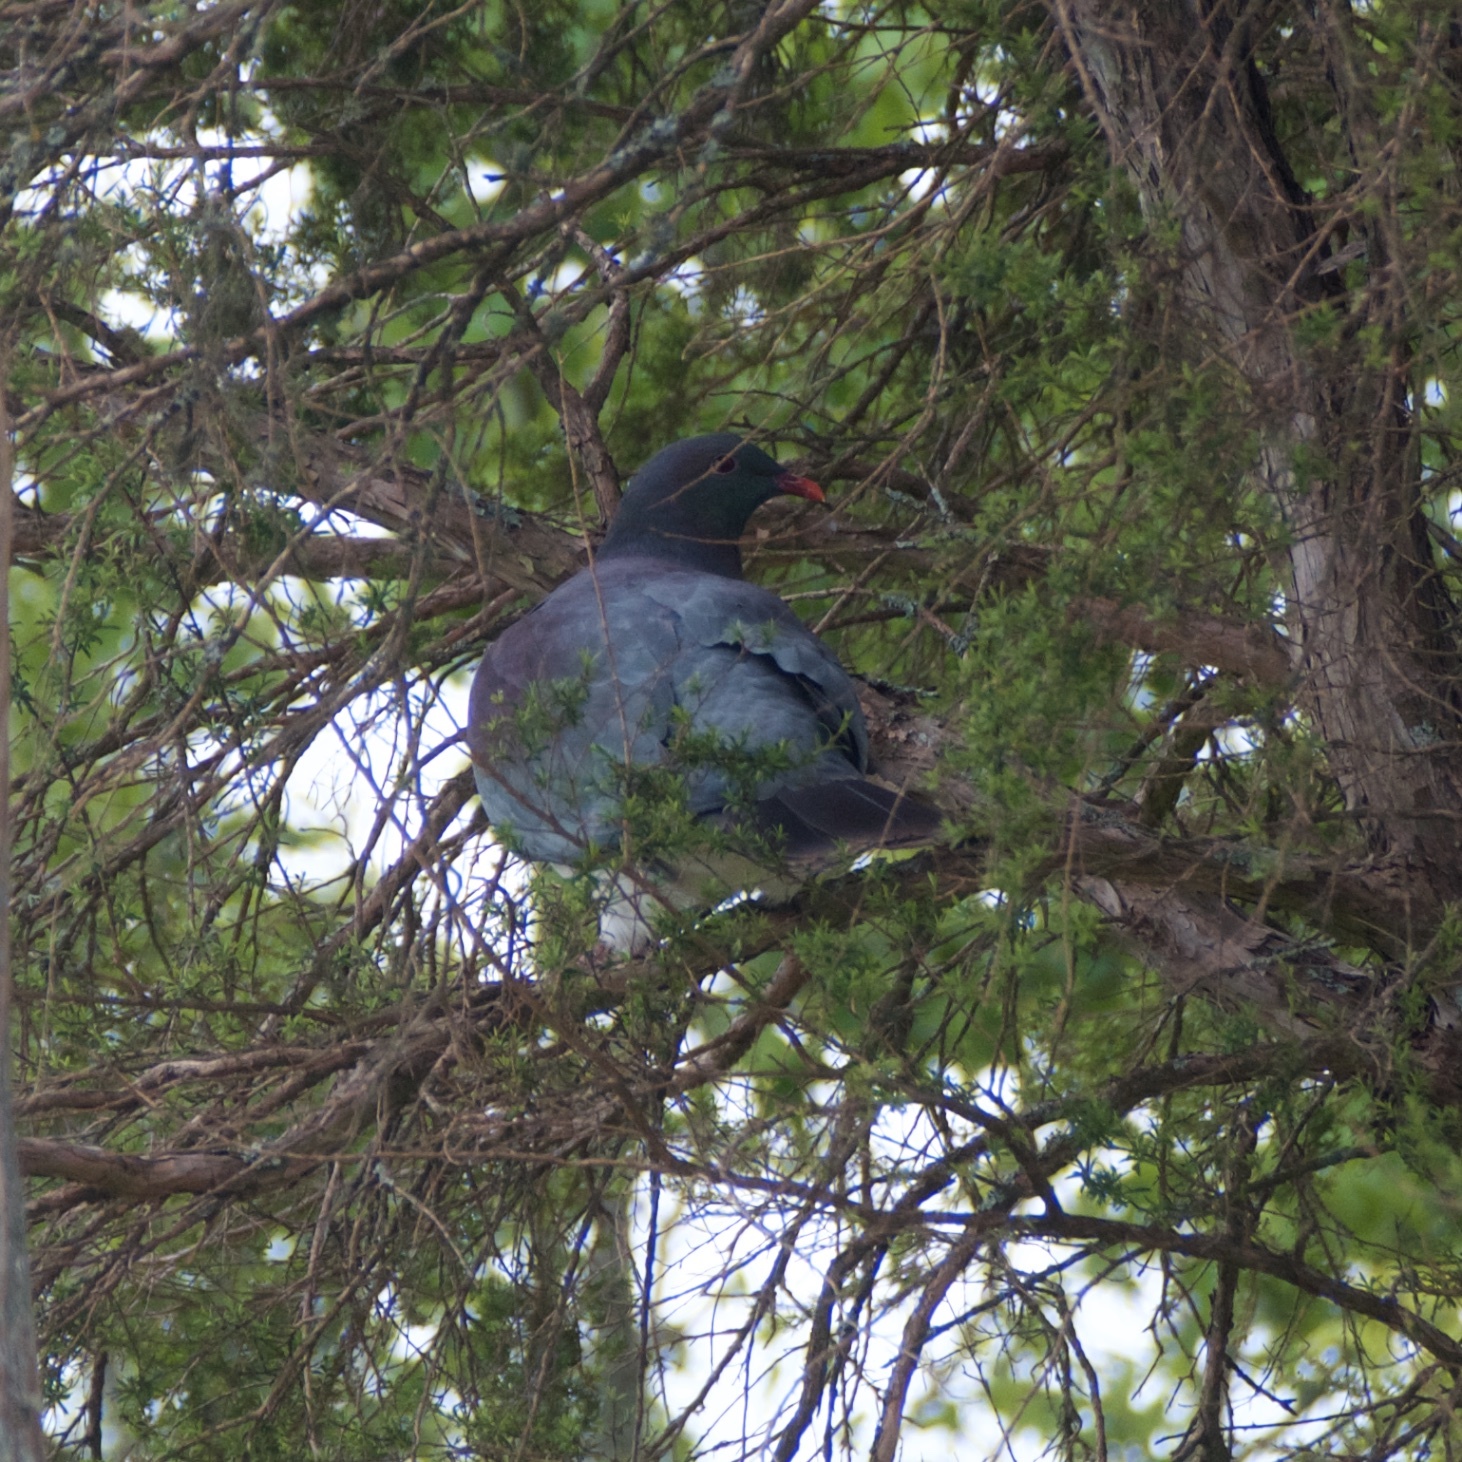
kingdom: Animalia
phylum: Chordata
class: Aves
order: Columbiformes
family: Columbidae
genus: Hemiphaga
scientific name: Hemiphaga novaeseelandiae
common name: New zealand pigeon
